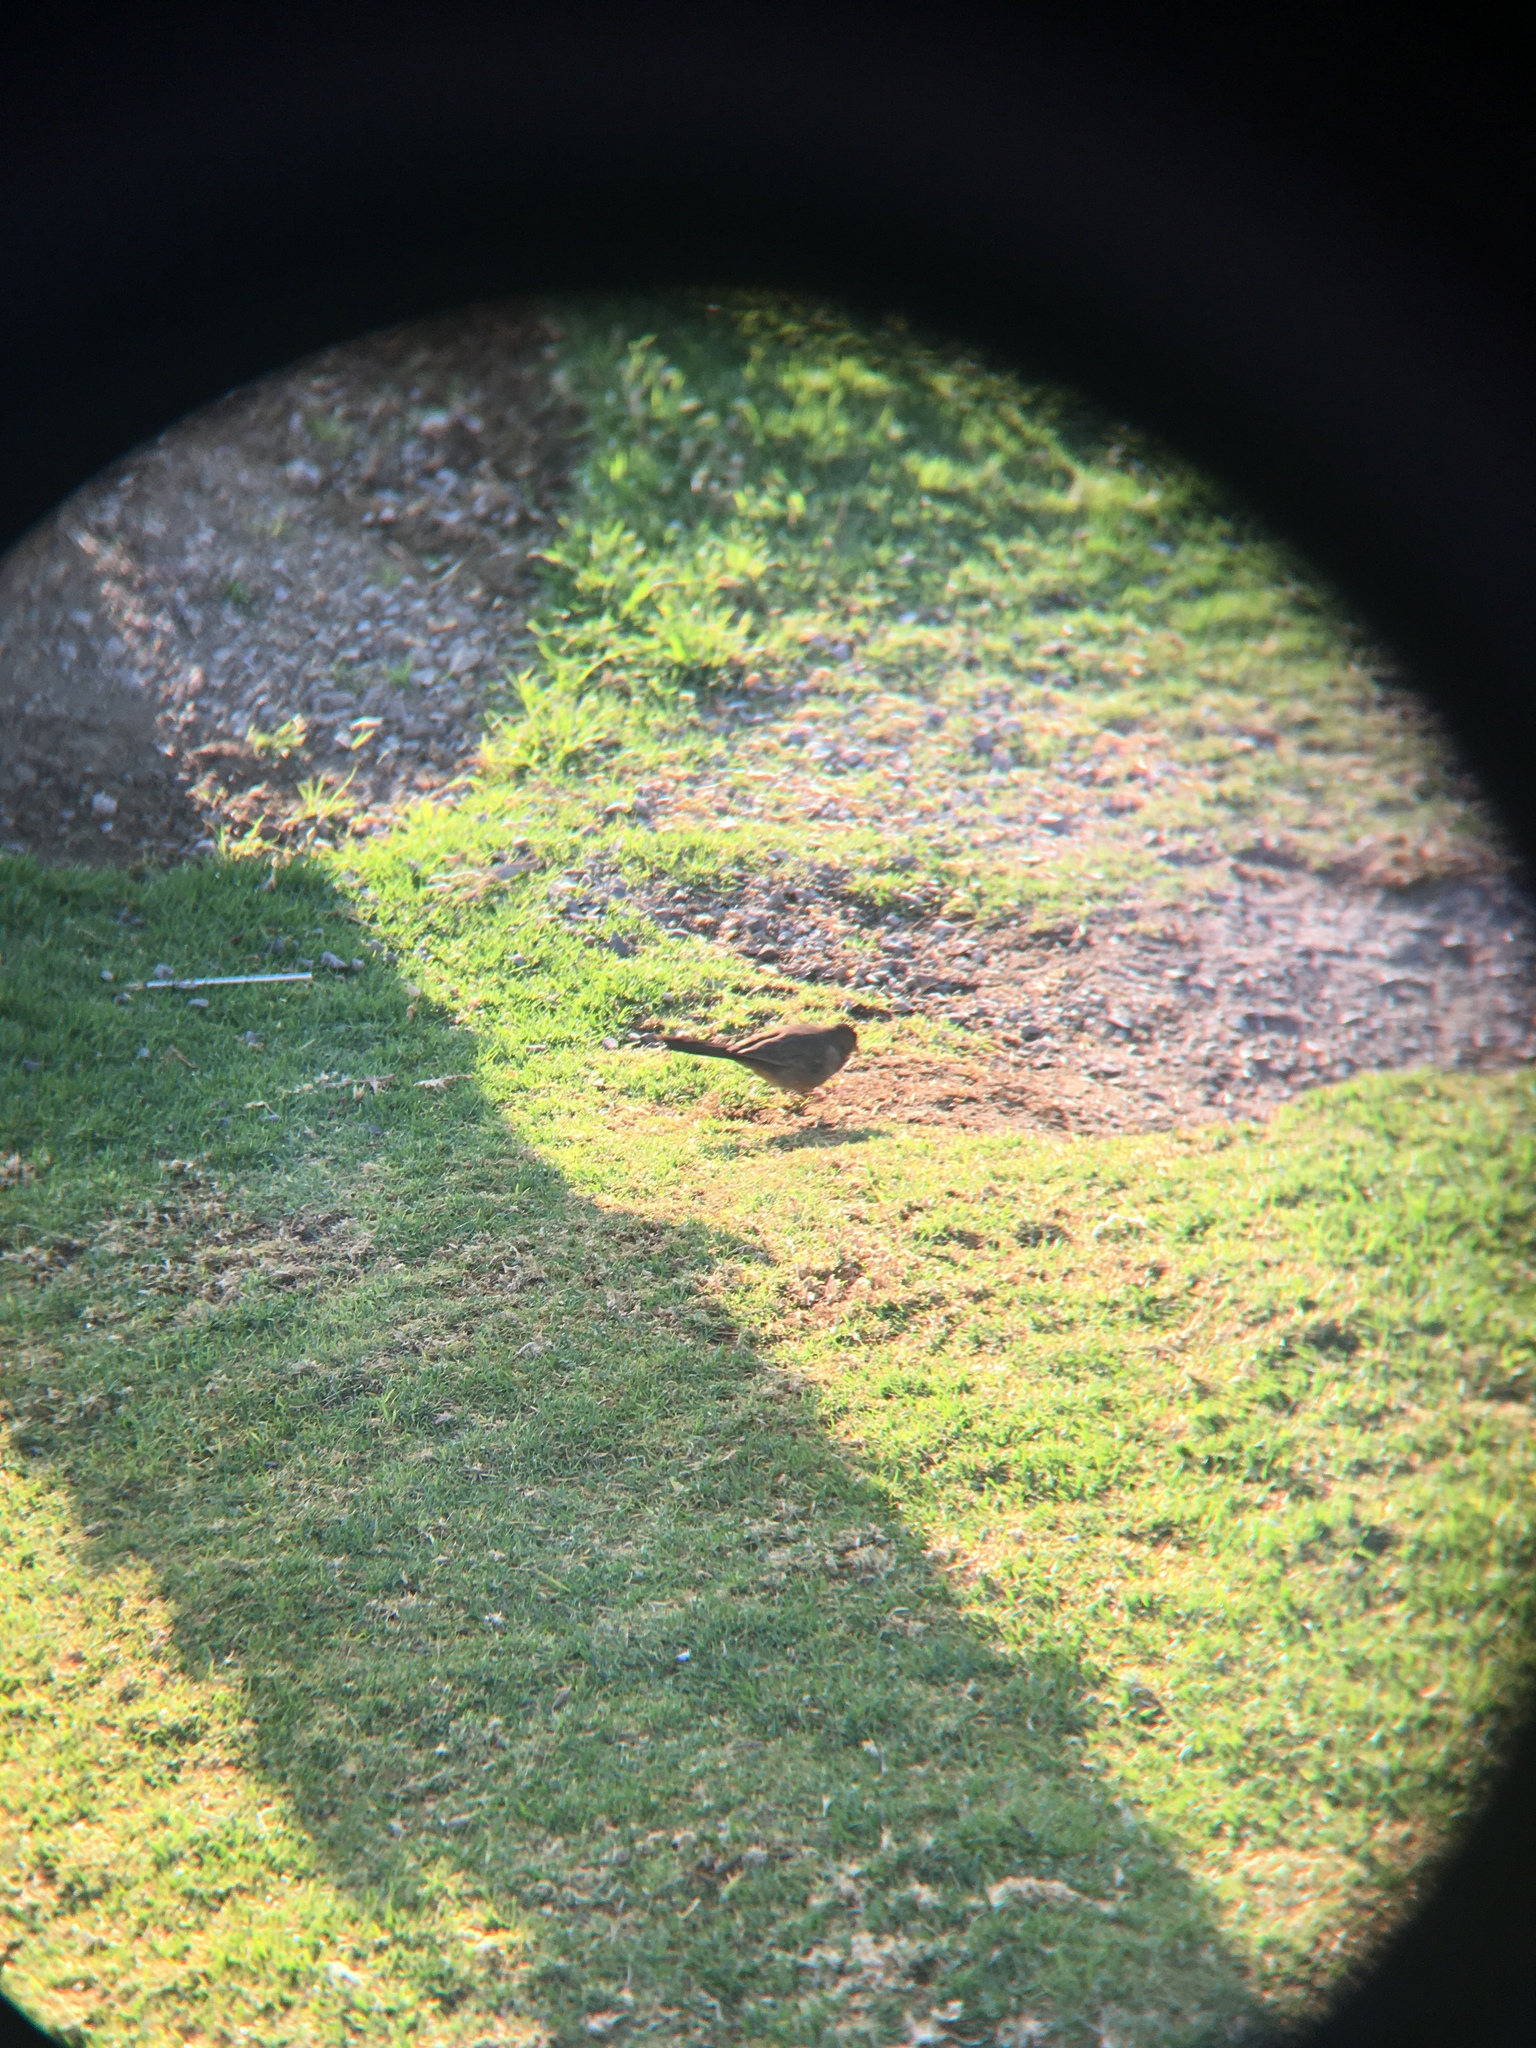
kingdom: Animalia
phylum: Chordata
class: Aves
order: Passeriformes
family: Passerellidae
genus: Melozone
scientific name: Melozone fusca
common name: Canyon towhee
